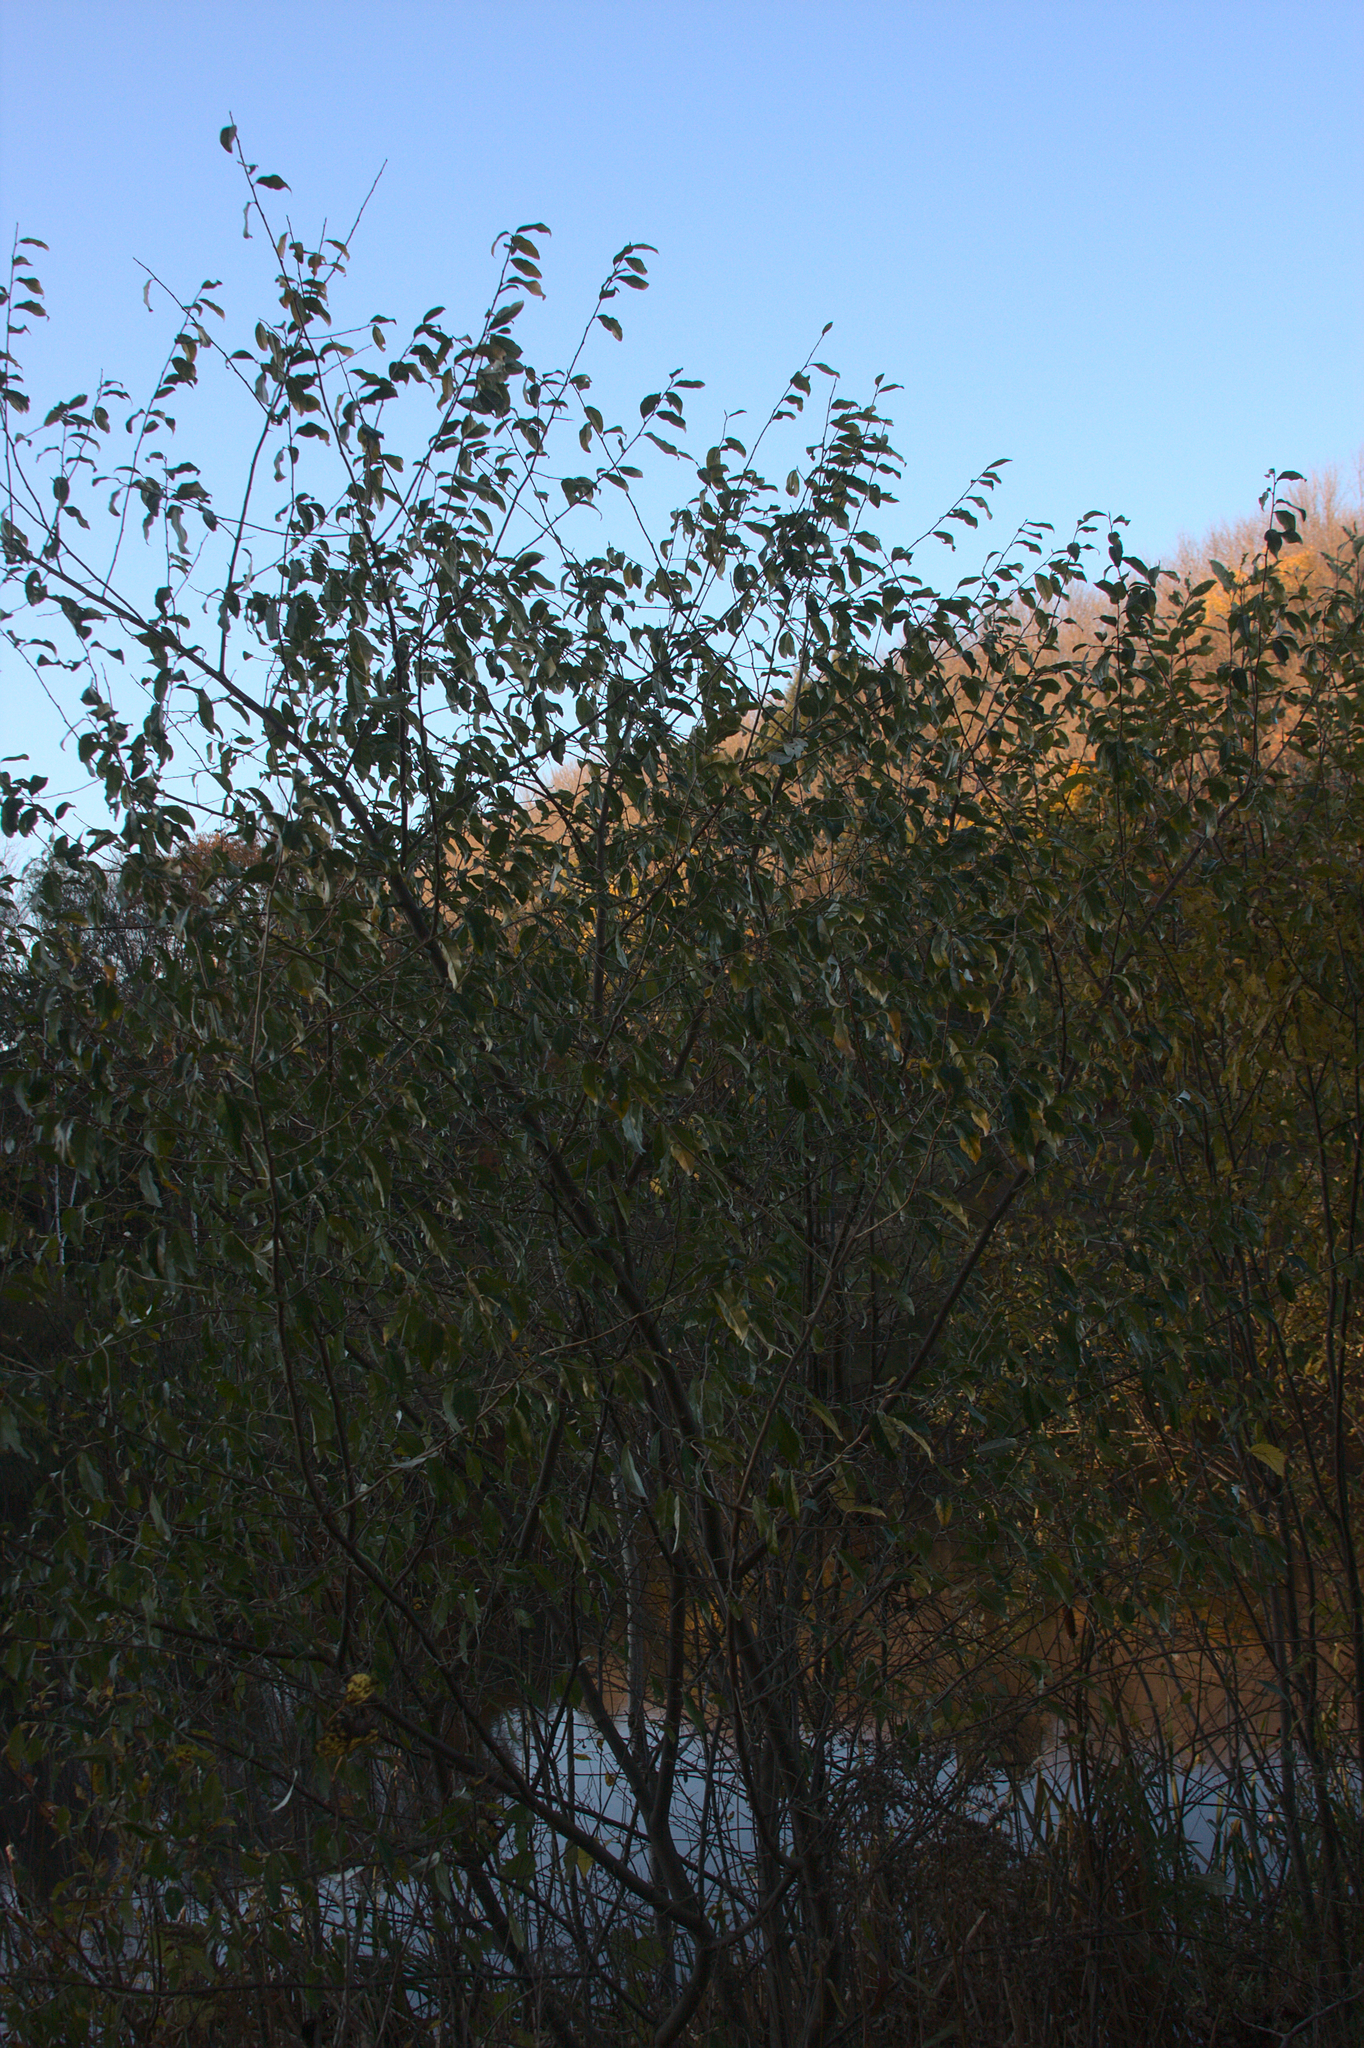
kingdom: Plantae
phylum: Tracheophyta
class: Magnoliopsida
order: Rosales
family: Elaeagnaceae
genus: Elaeagnus
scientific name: Elaeagnus umbellata
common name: Autumn olive
